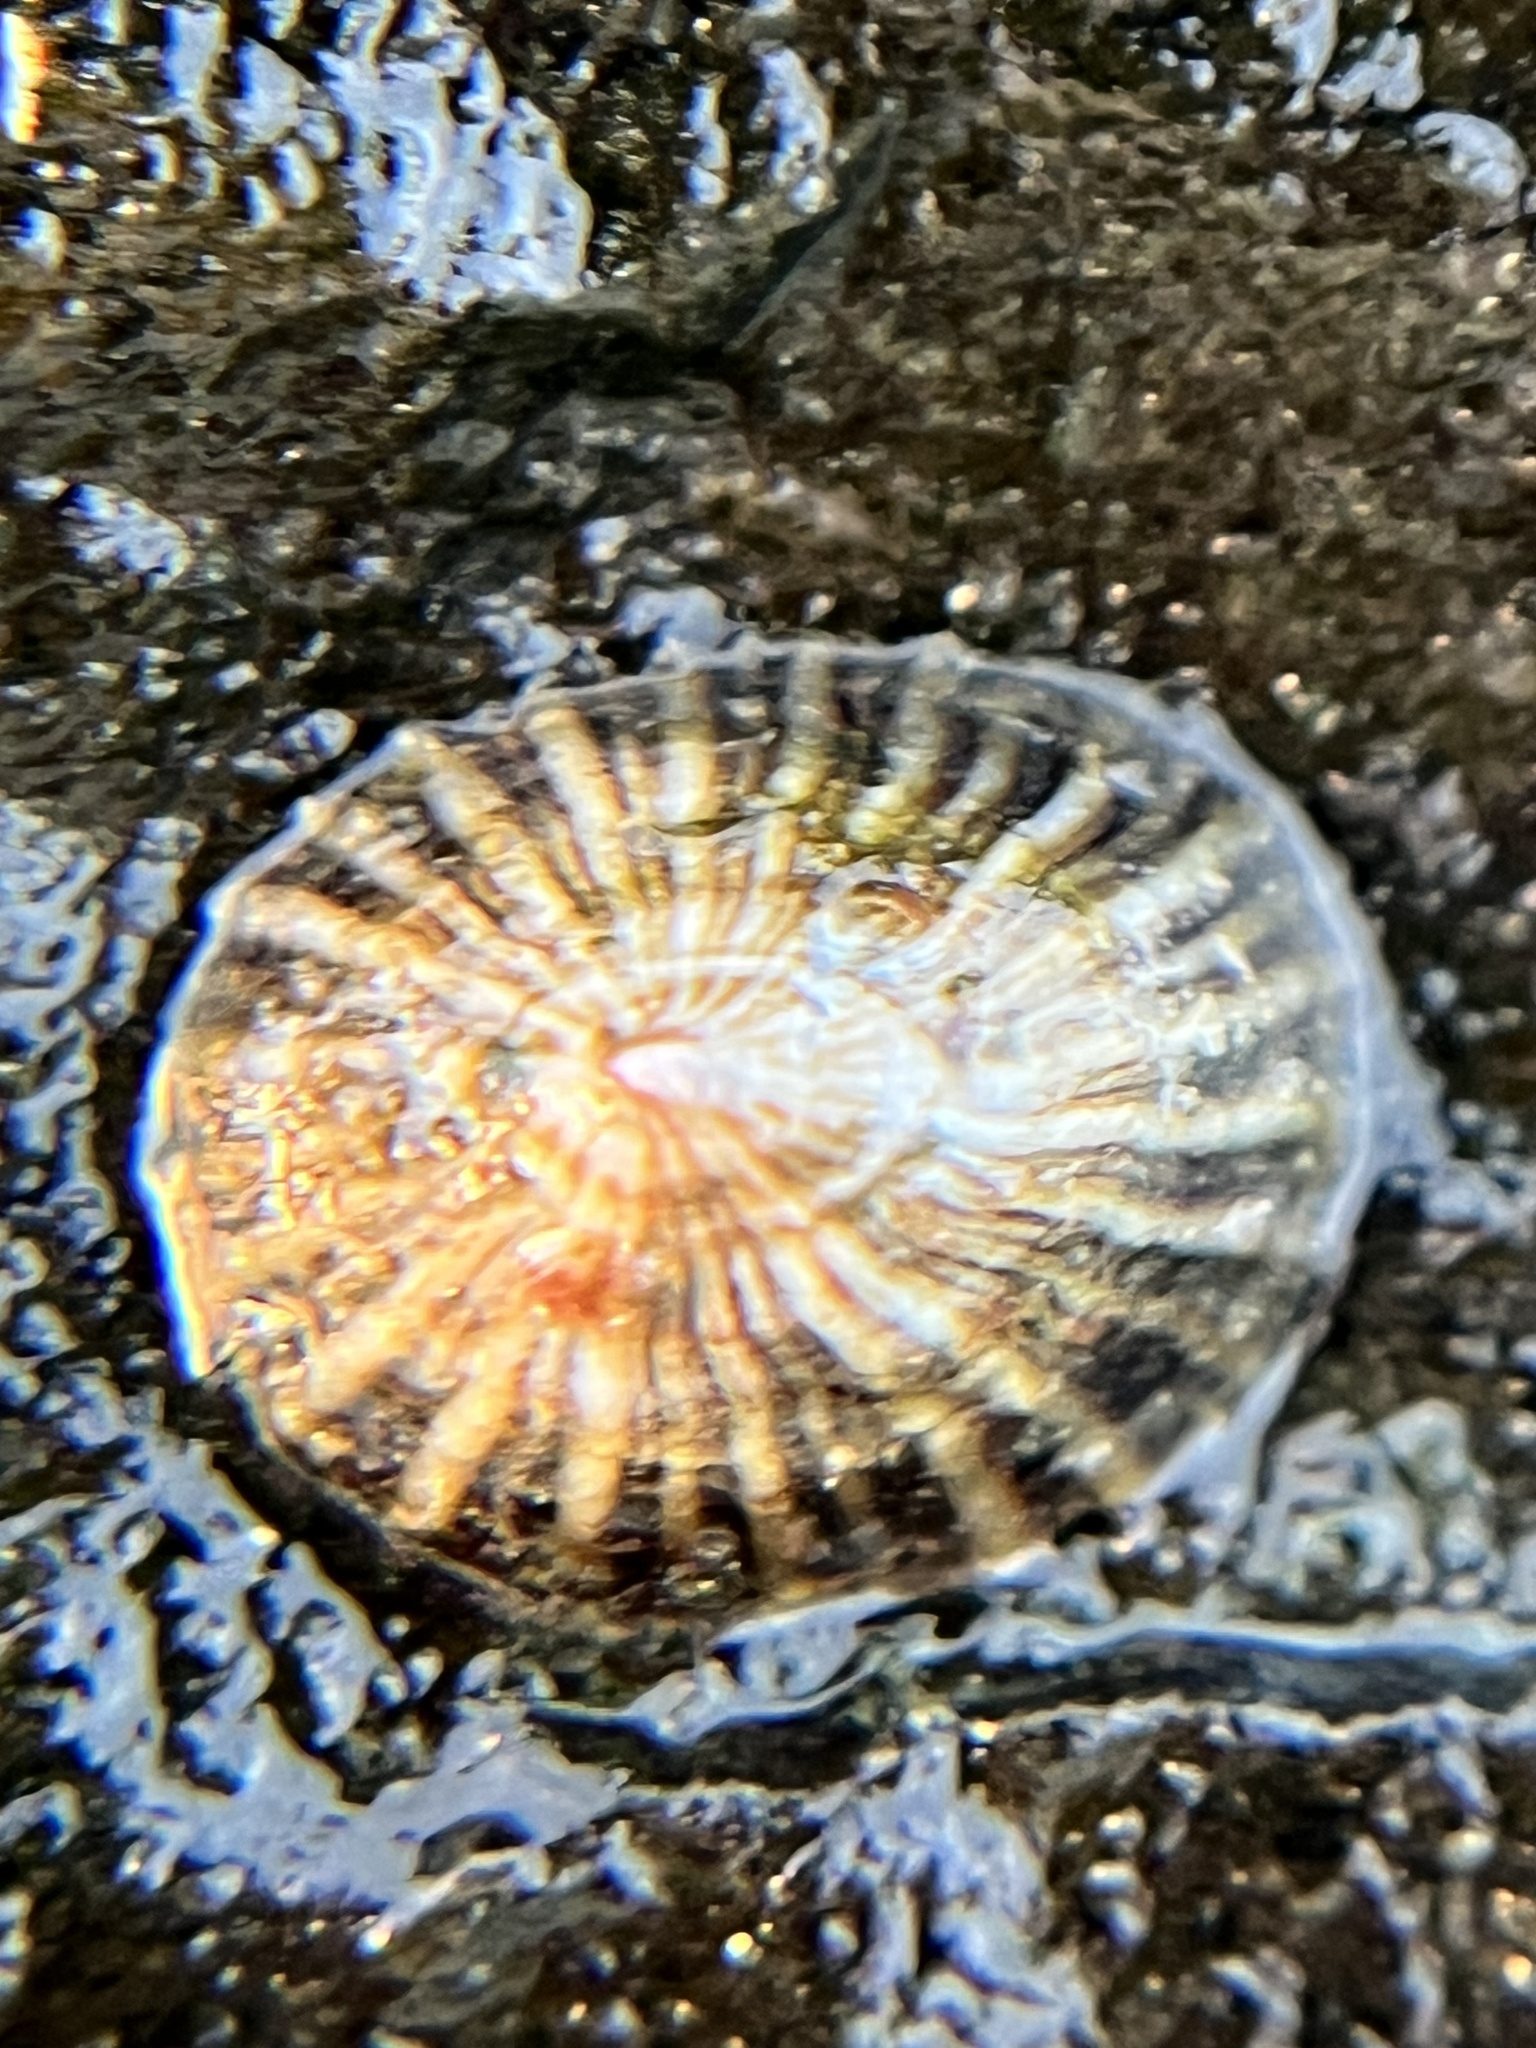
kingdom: Animalia
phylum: Mollusca
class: Gastropoda
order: Siphonariida
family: Siphonariidae
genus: Siphonaria
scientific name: Siphonaria normalis
